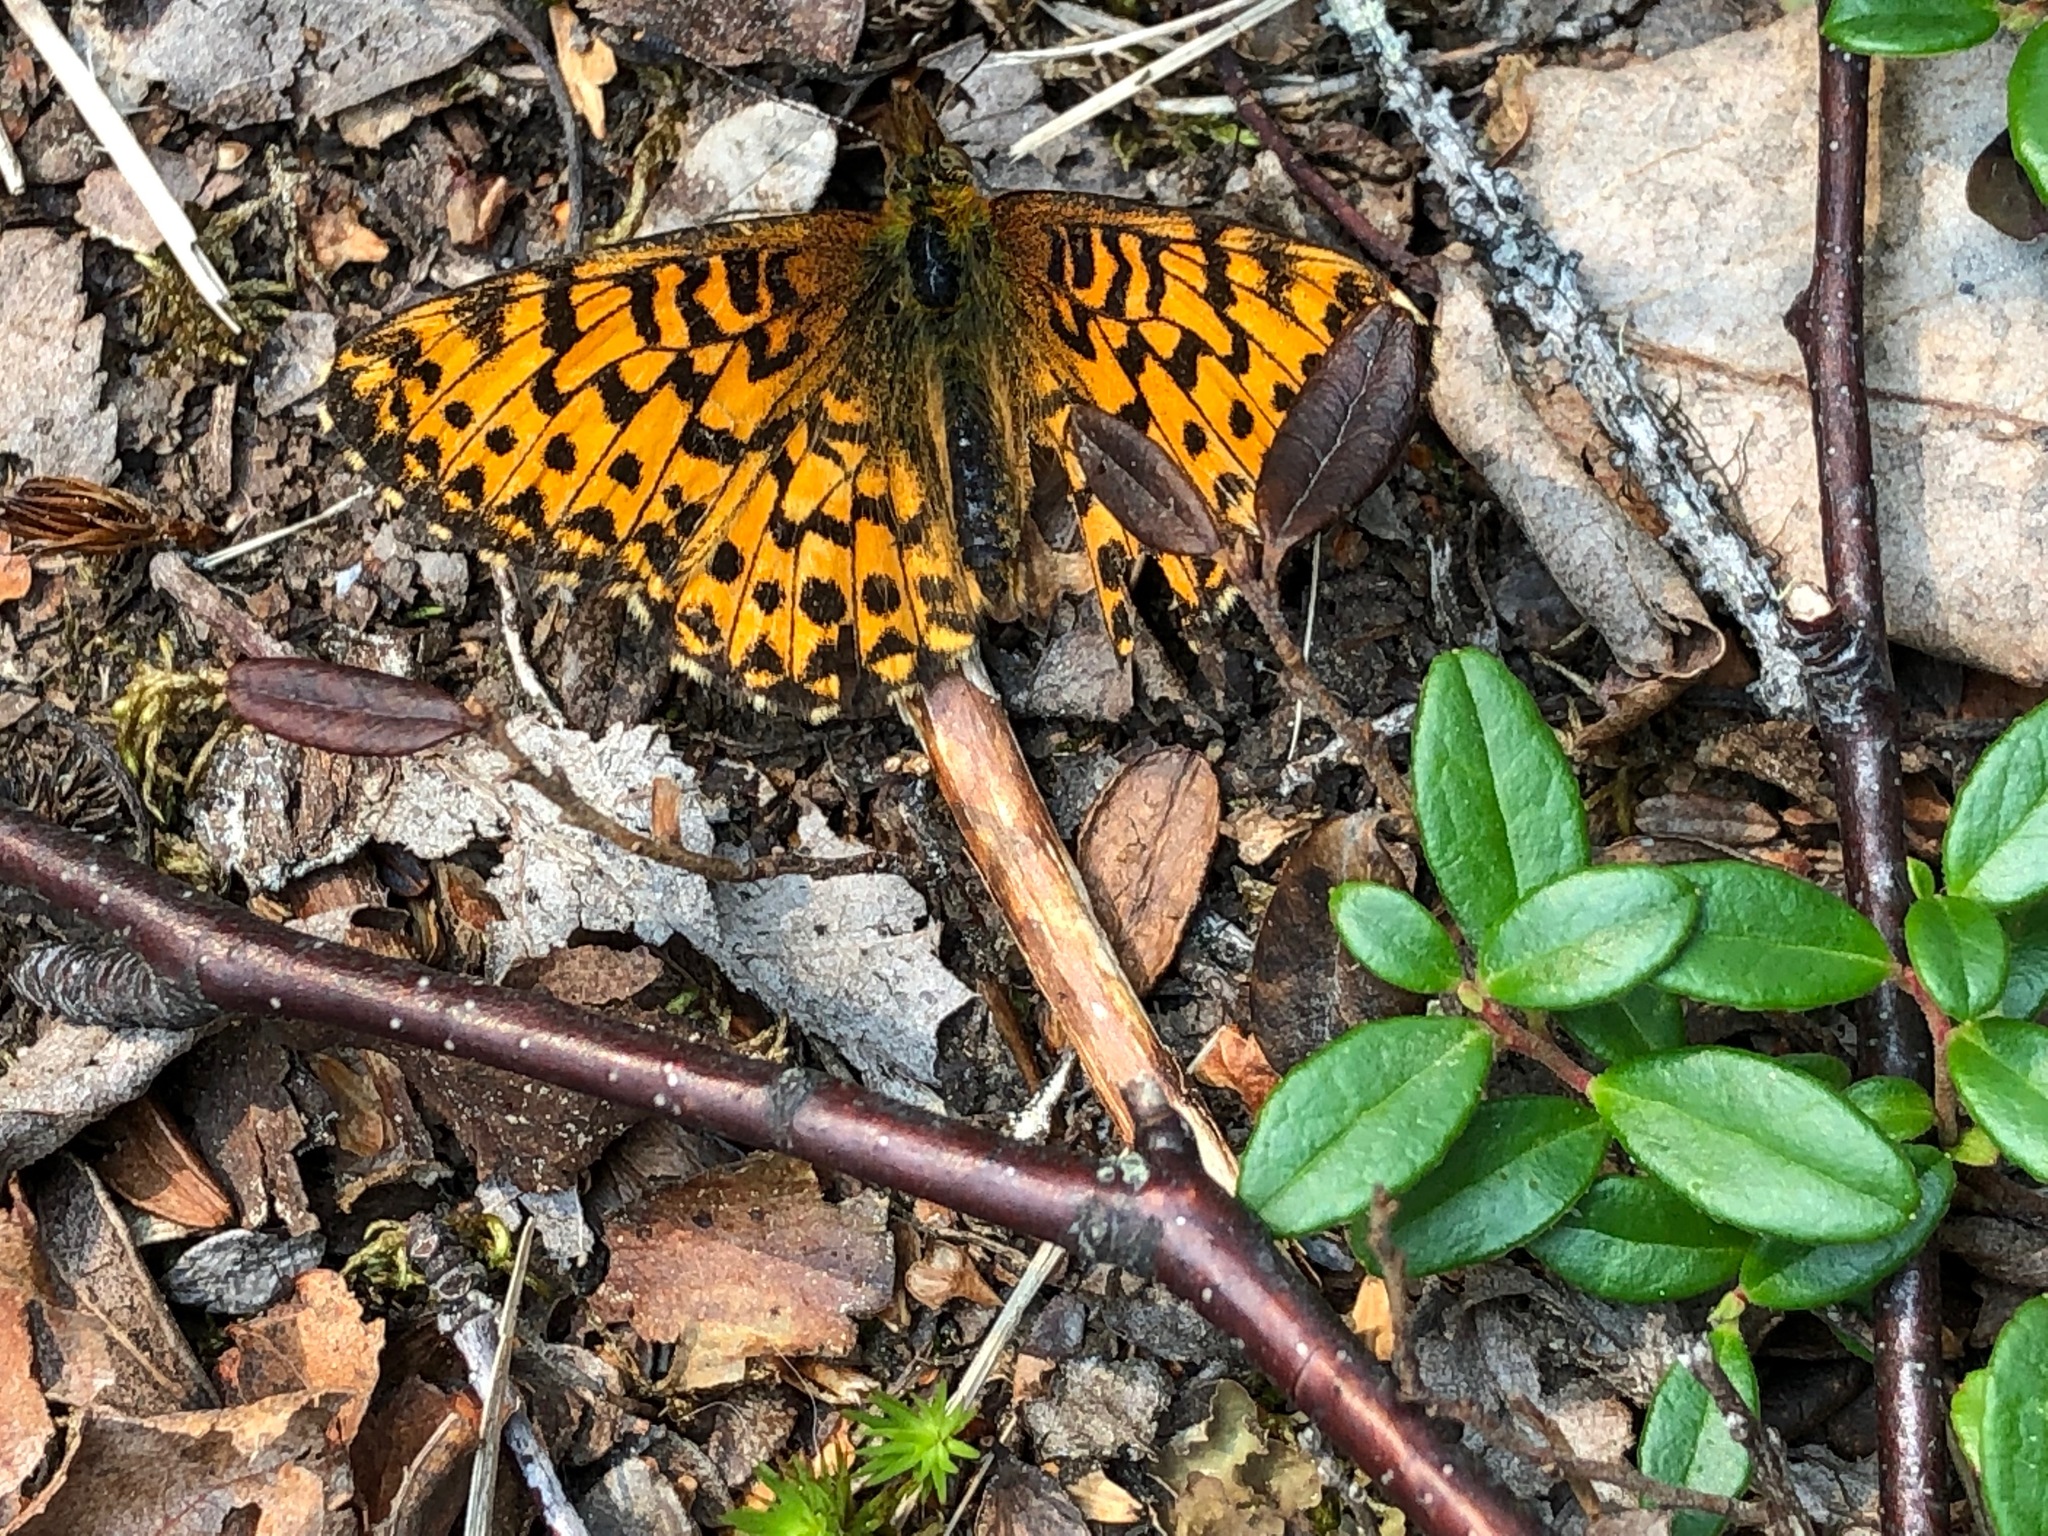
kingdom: Animalia
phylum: Arthropoda
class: Insecta
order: Lepidoptera
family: Nymphalidae
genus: Boloria
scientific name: Boloria chariclea
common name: Arctic fritillary
